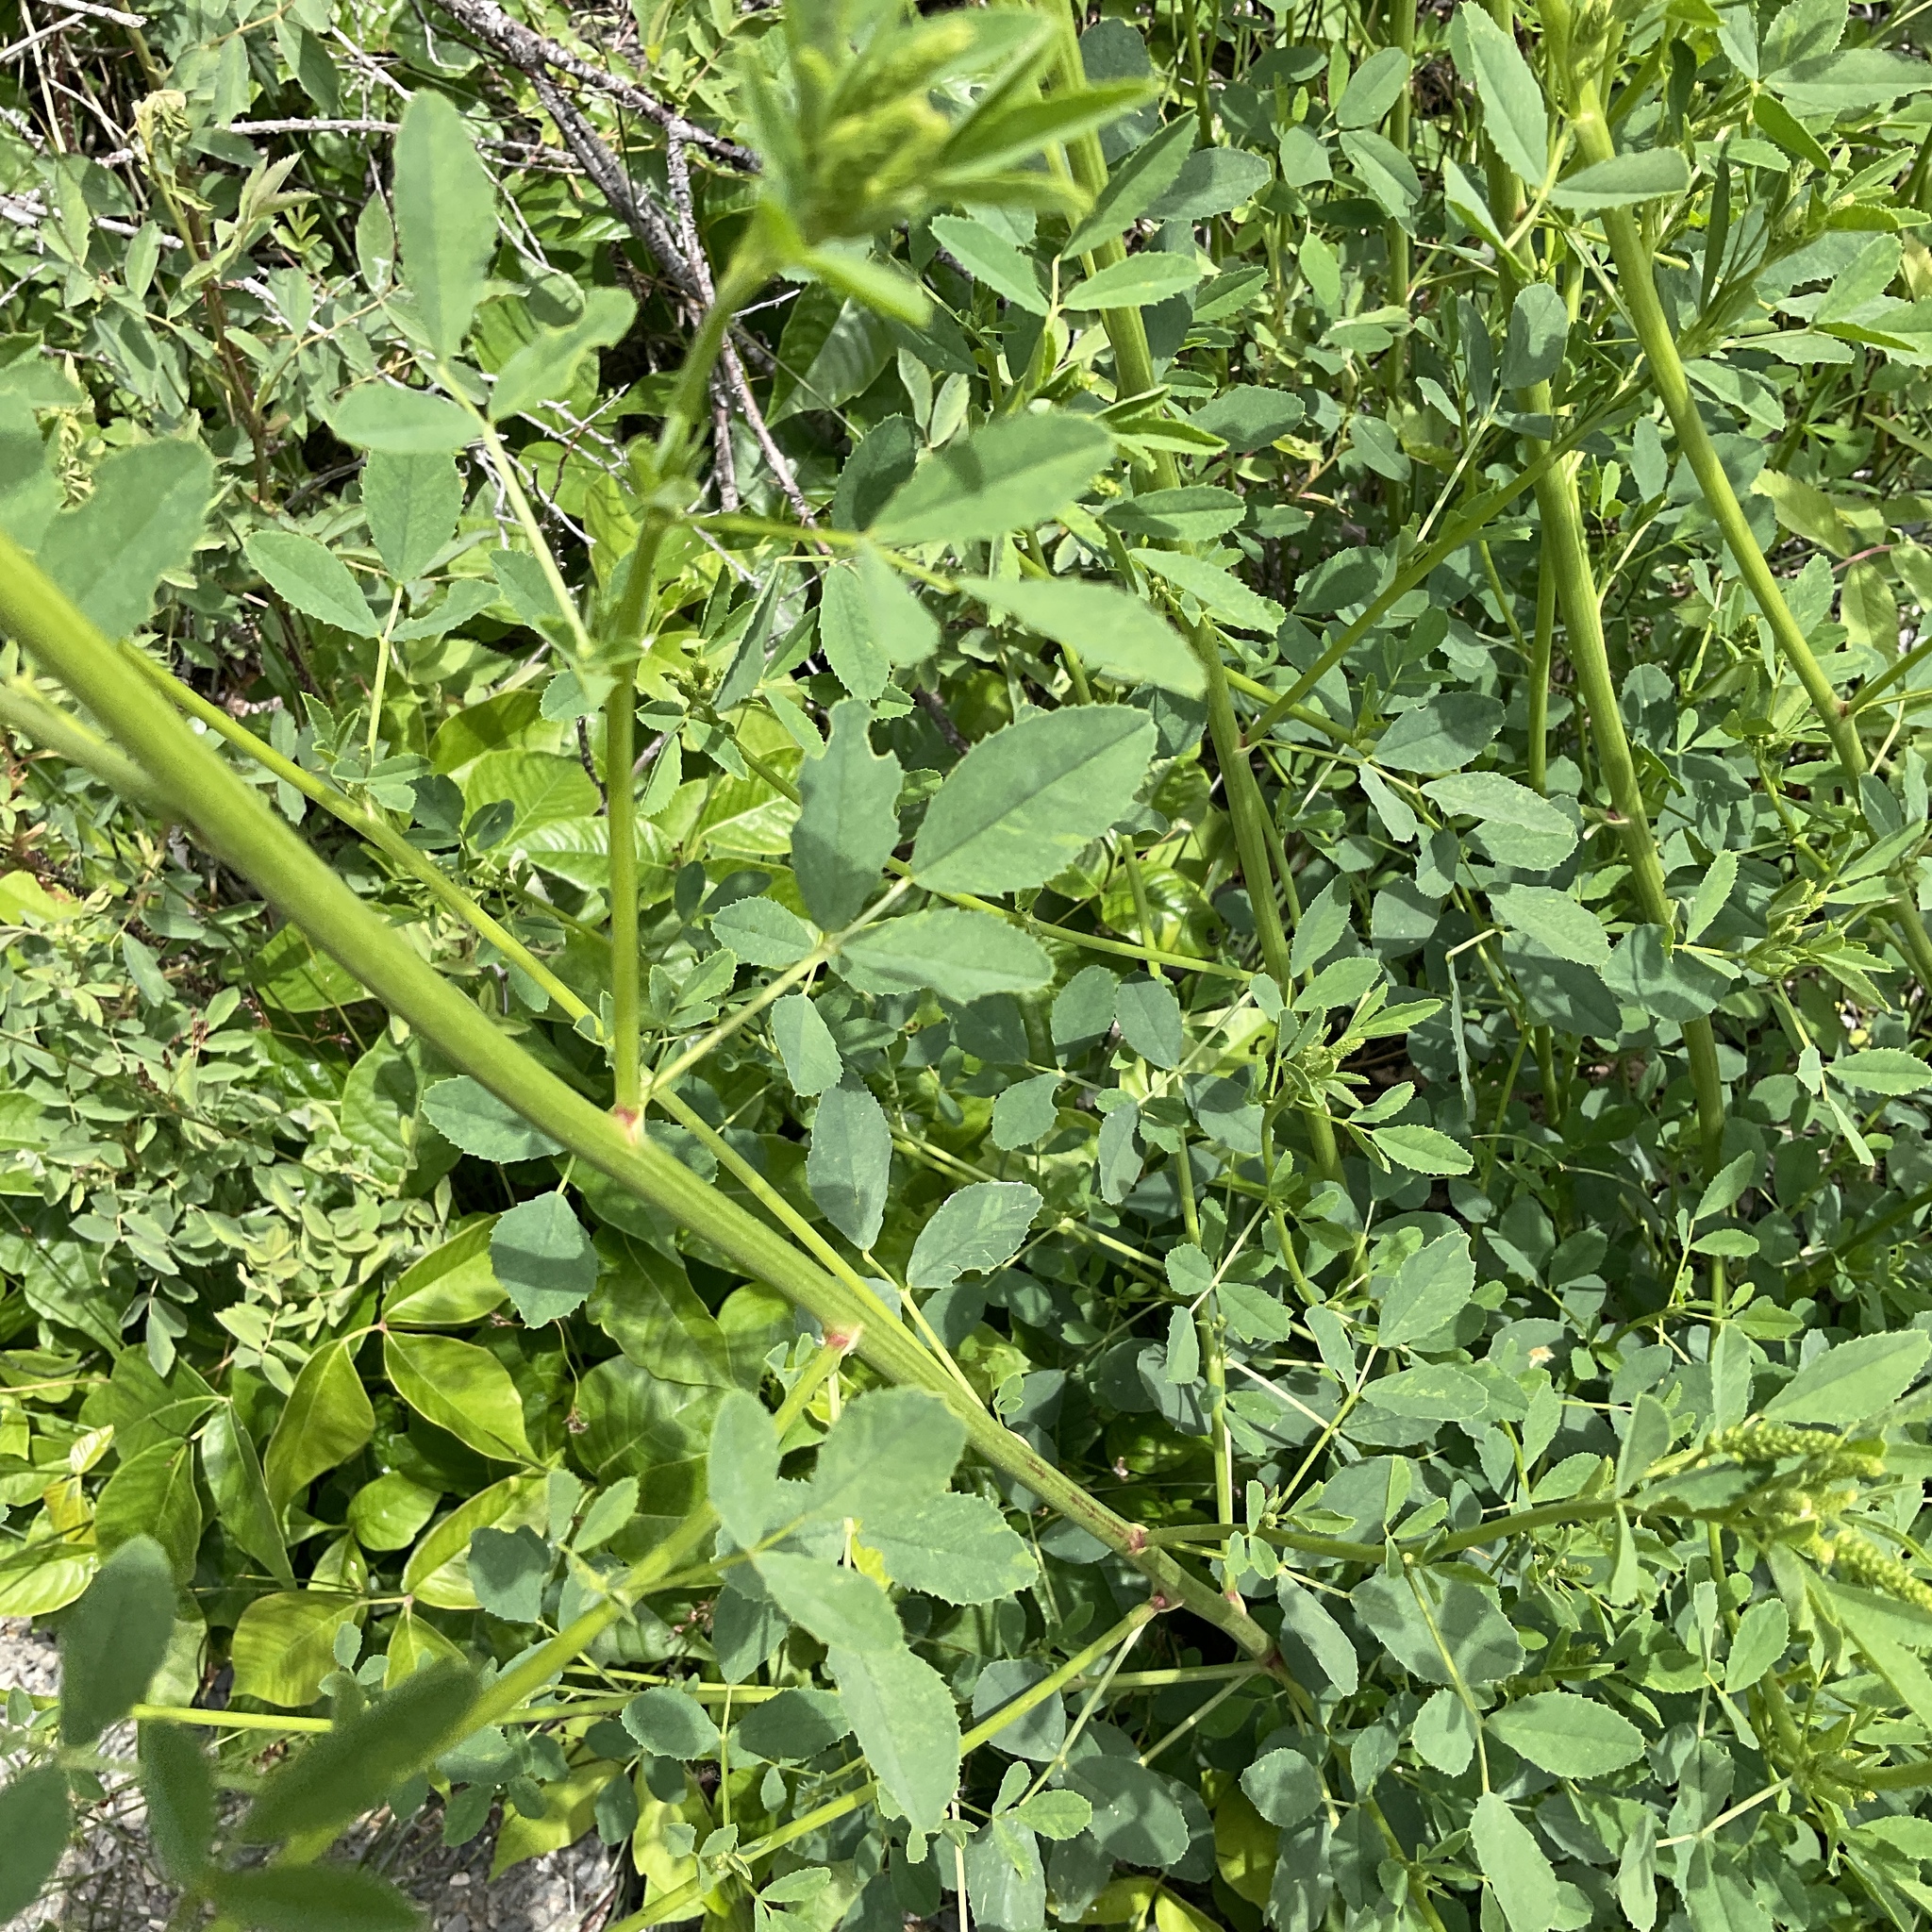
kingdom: Plantae
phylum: Tracheophyta
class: Magnoliopsida
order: Fabales
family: Fabaceae
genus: Melilotus
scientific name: Melilotus
